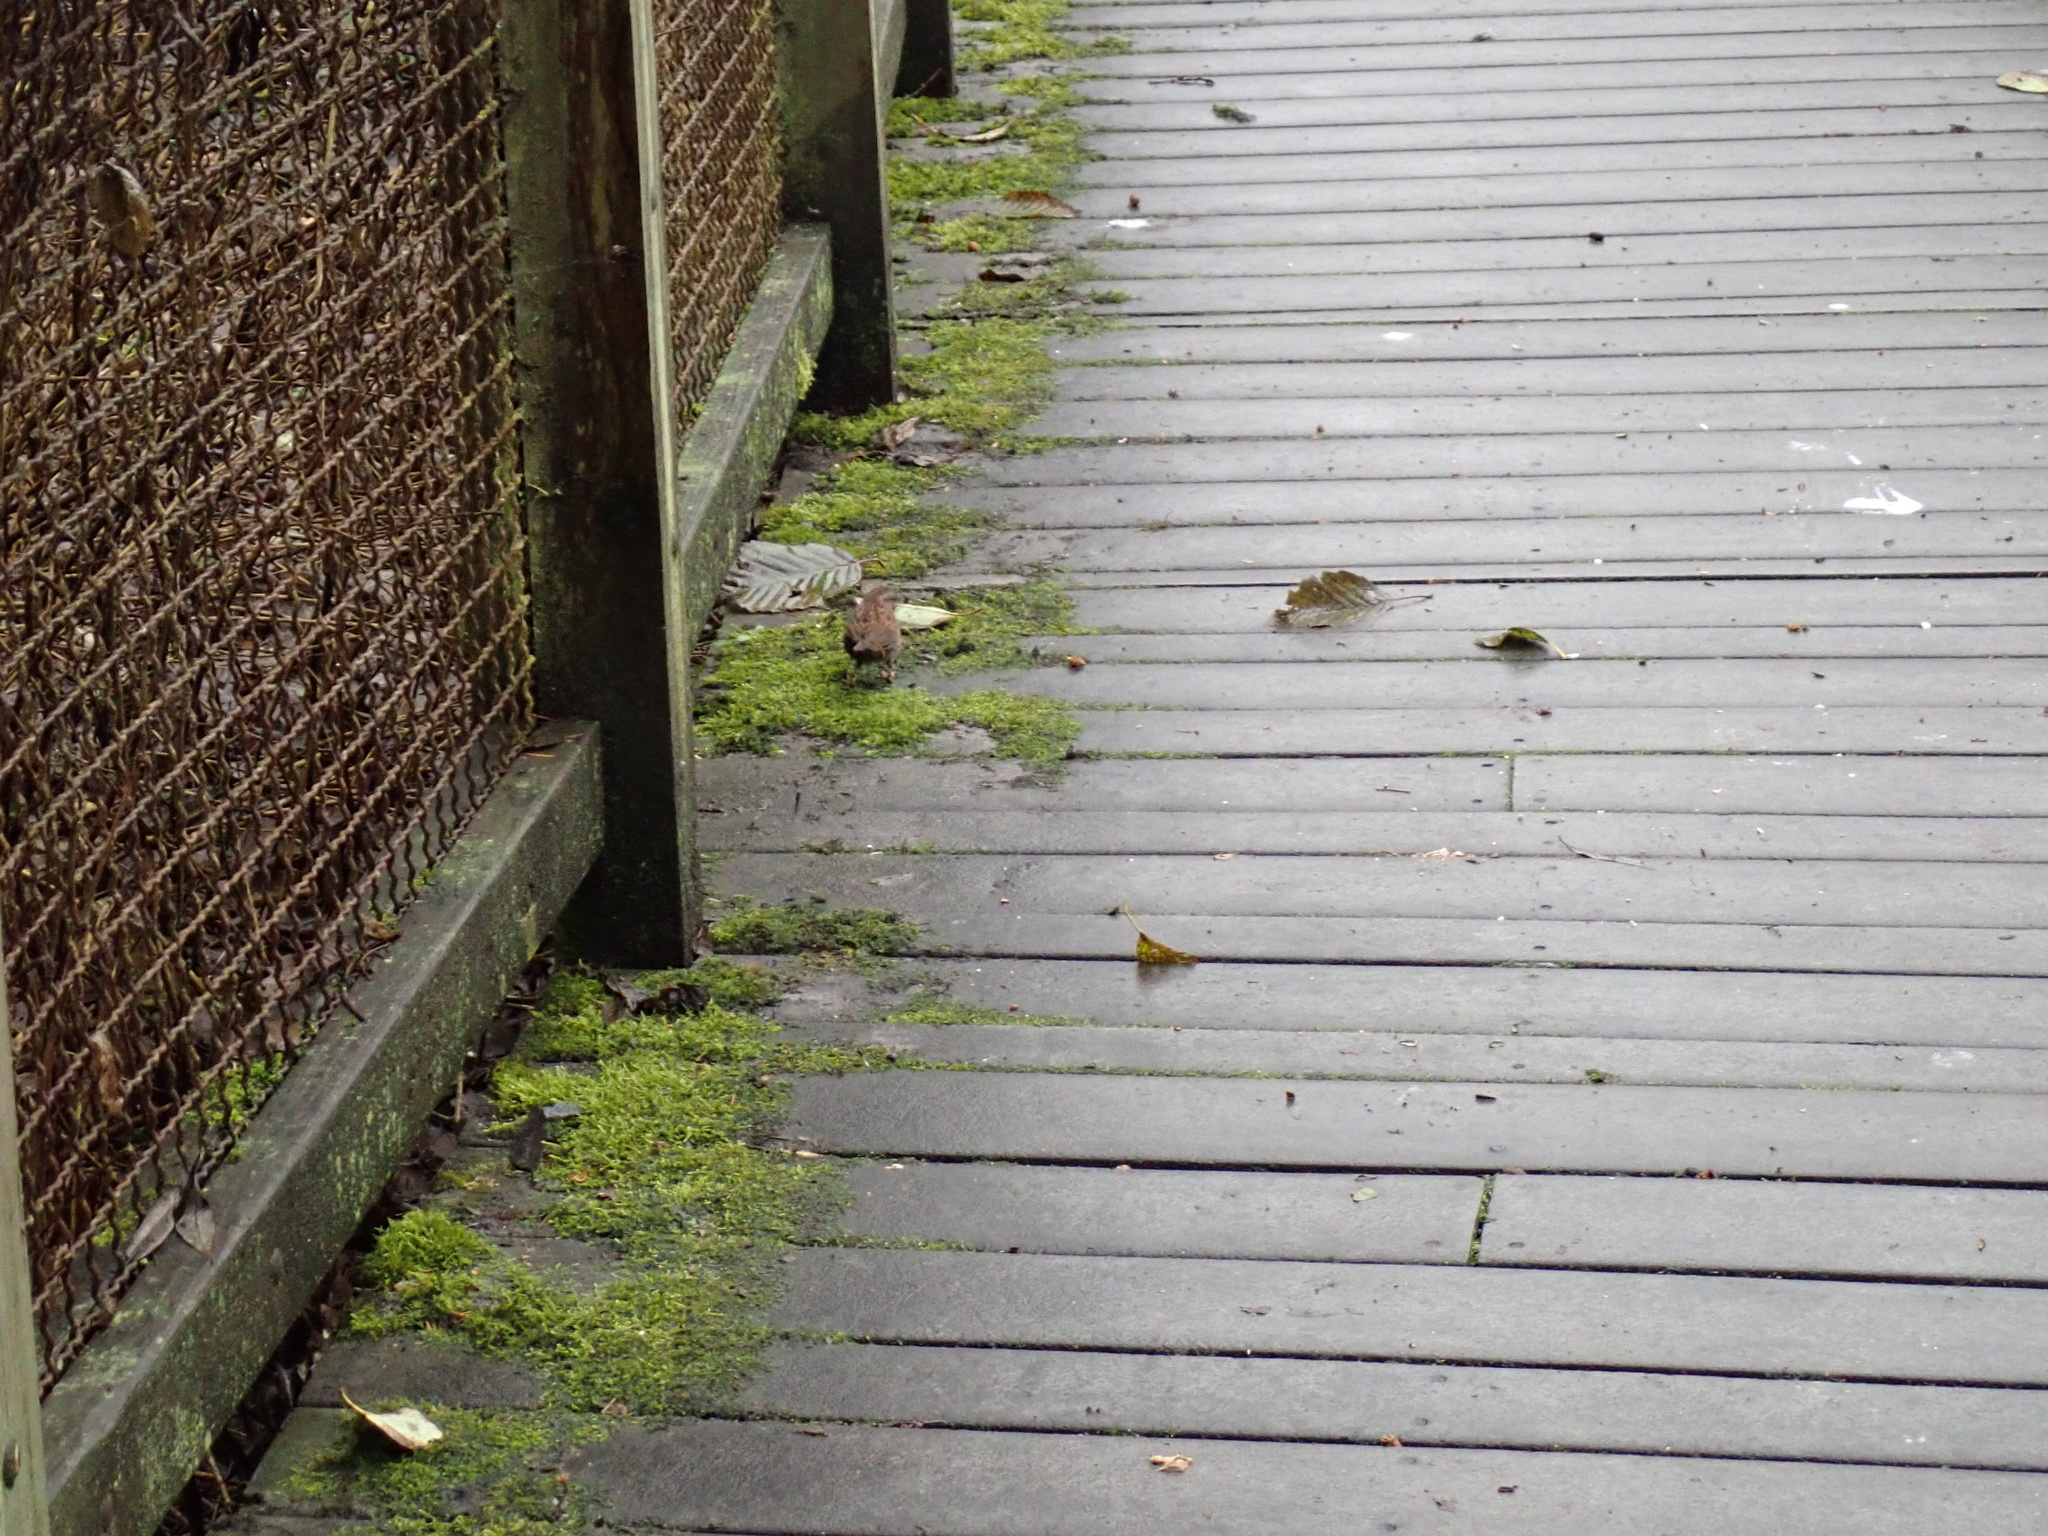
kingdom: Animalia
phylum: Chordata
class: Aves
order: Passeriformes
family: Passerellidae
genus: Melospiza
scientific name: Melospiza melodia
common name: Song sparrow
